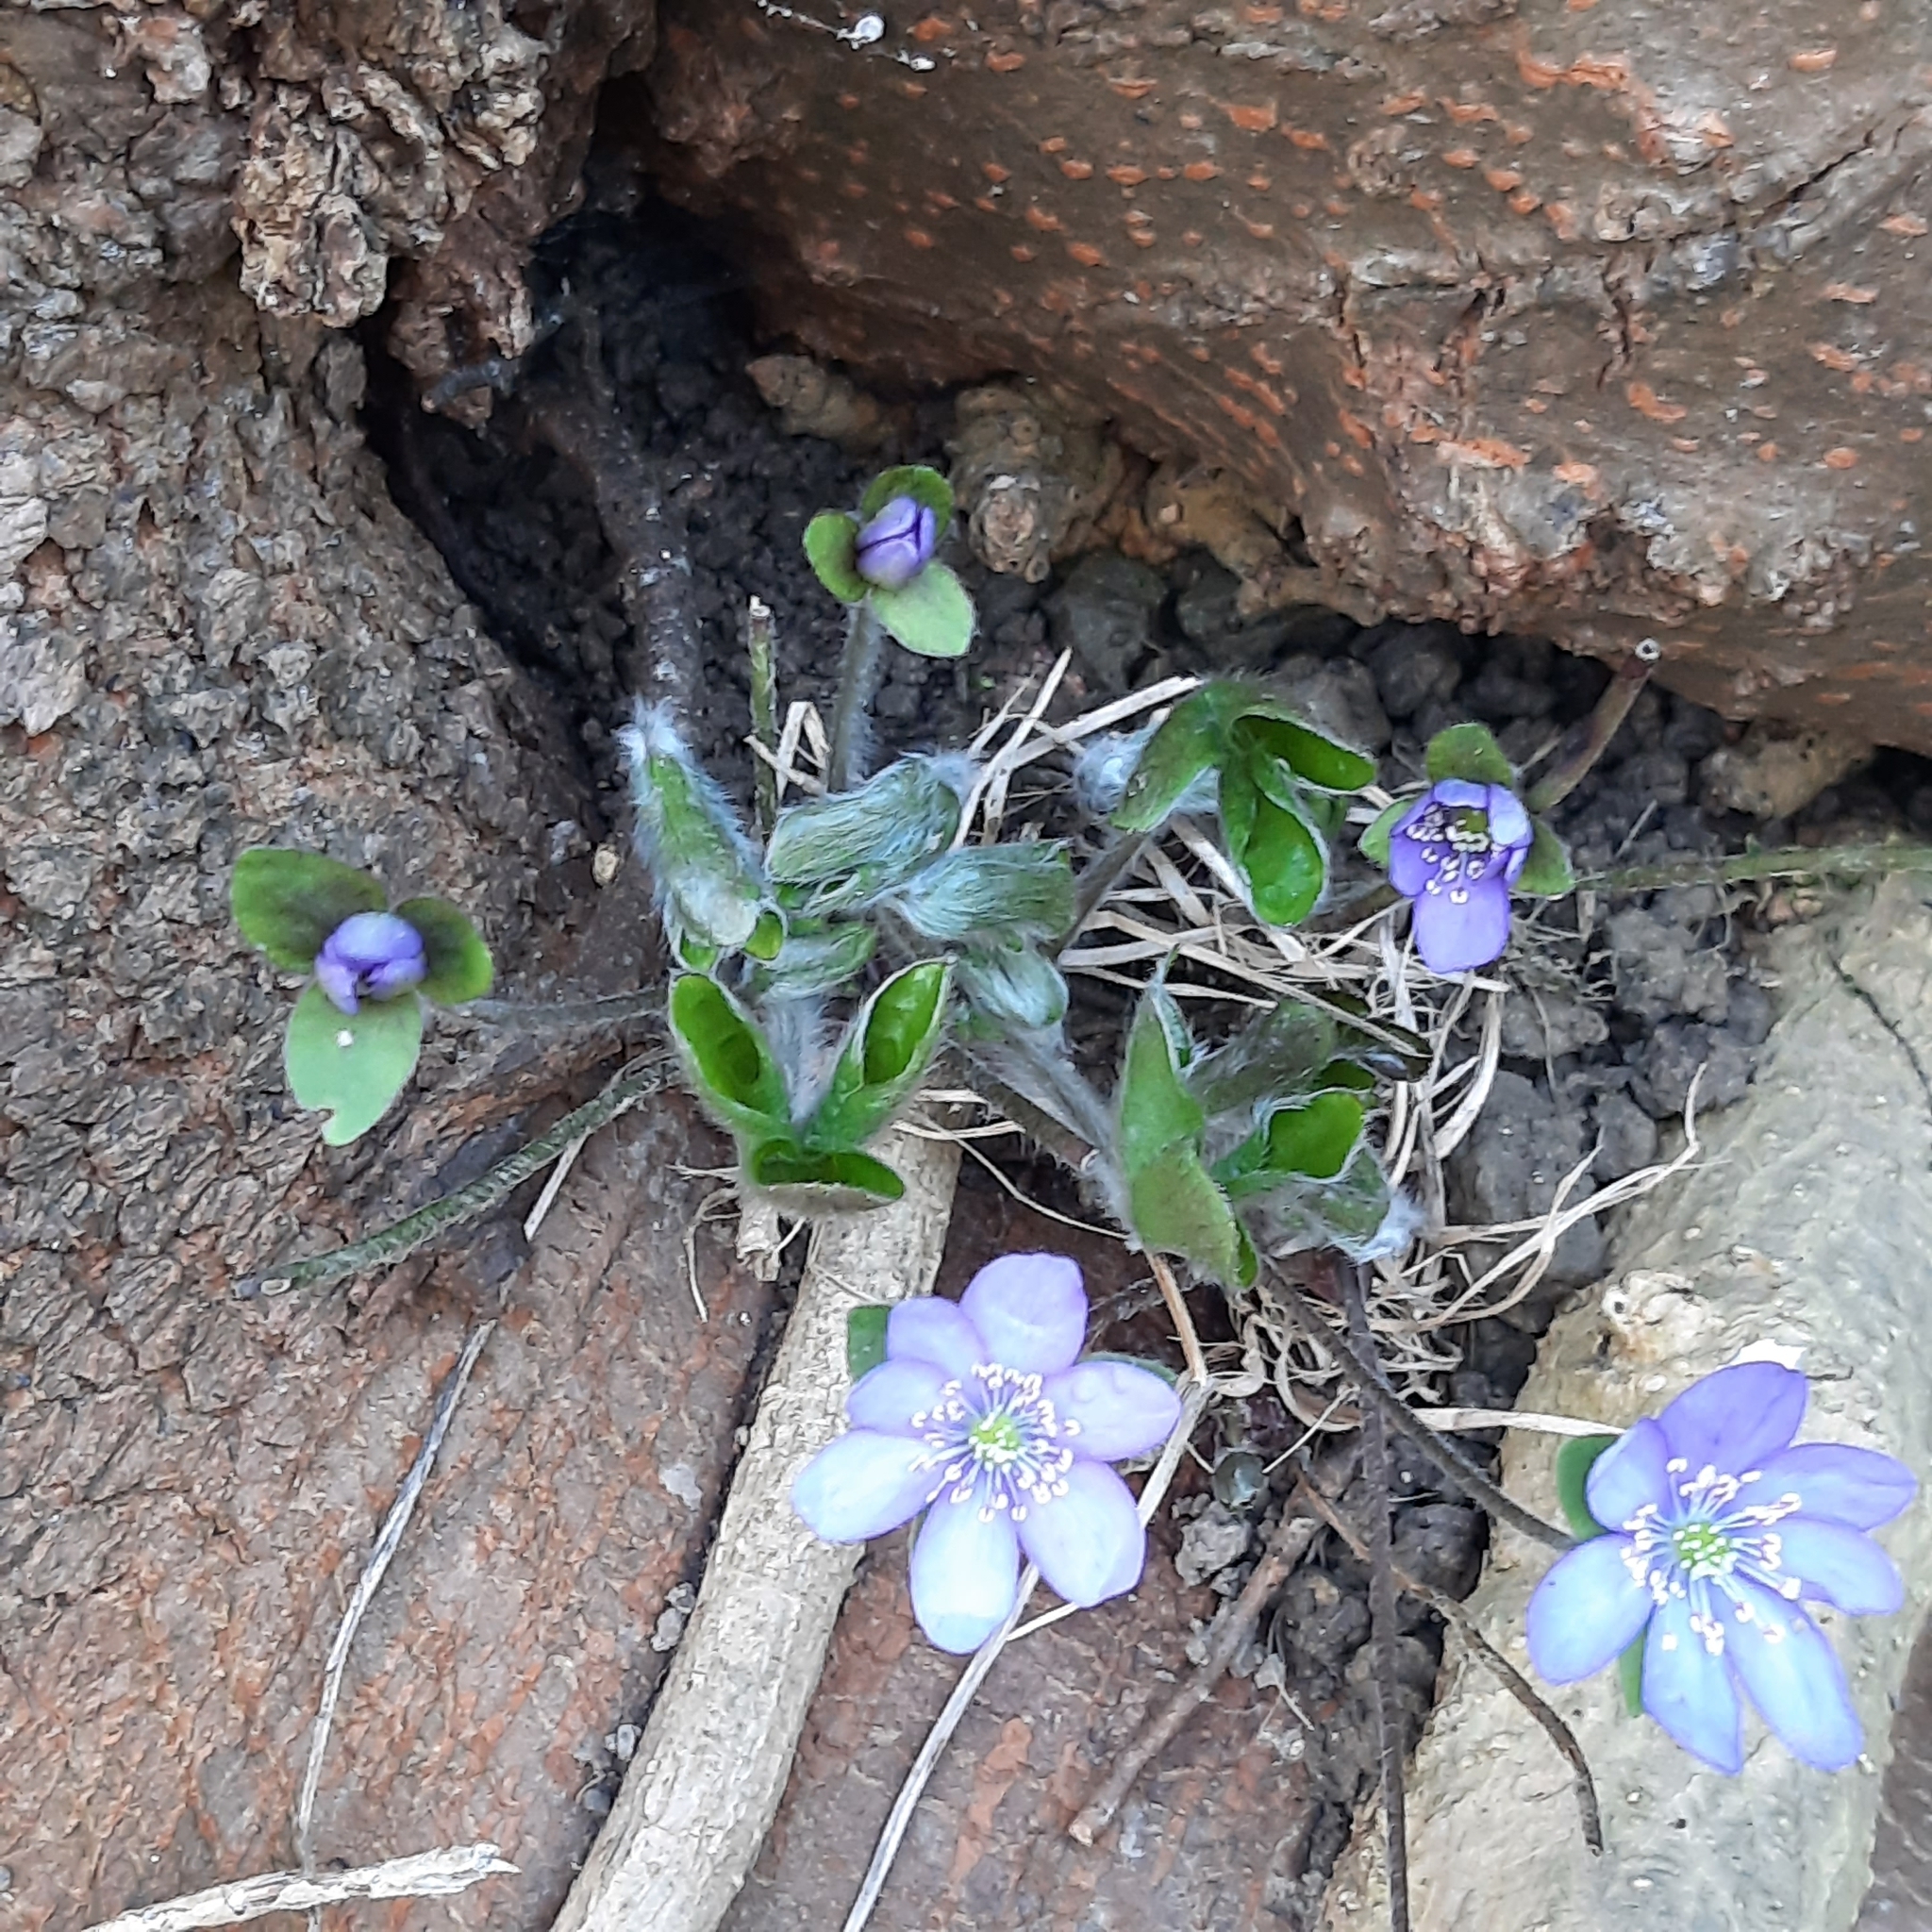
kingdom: Plantae
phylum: Tracheophyta
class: Magnoliopsida
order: Ranunculales
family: Ranunculaceae
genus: Hepatica
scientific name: Hepatica nobilis
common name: Liverleaf
